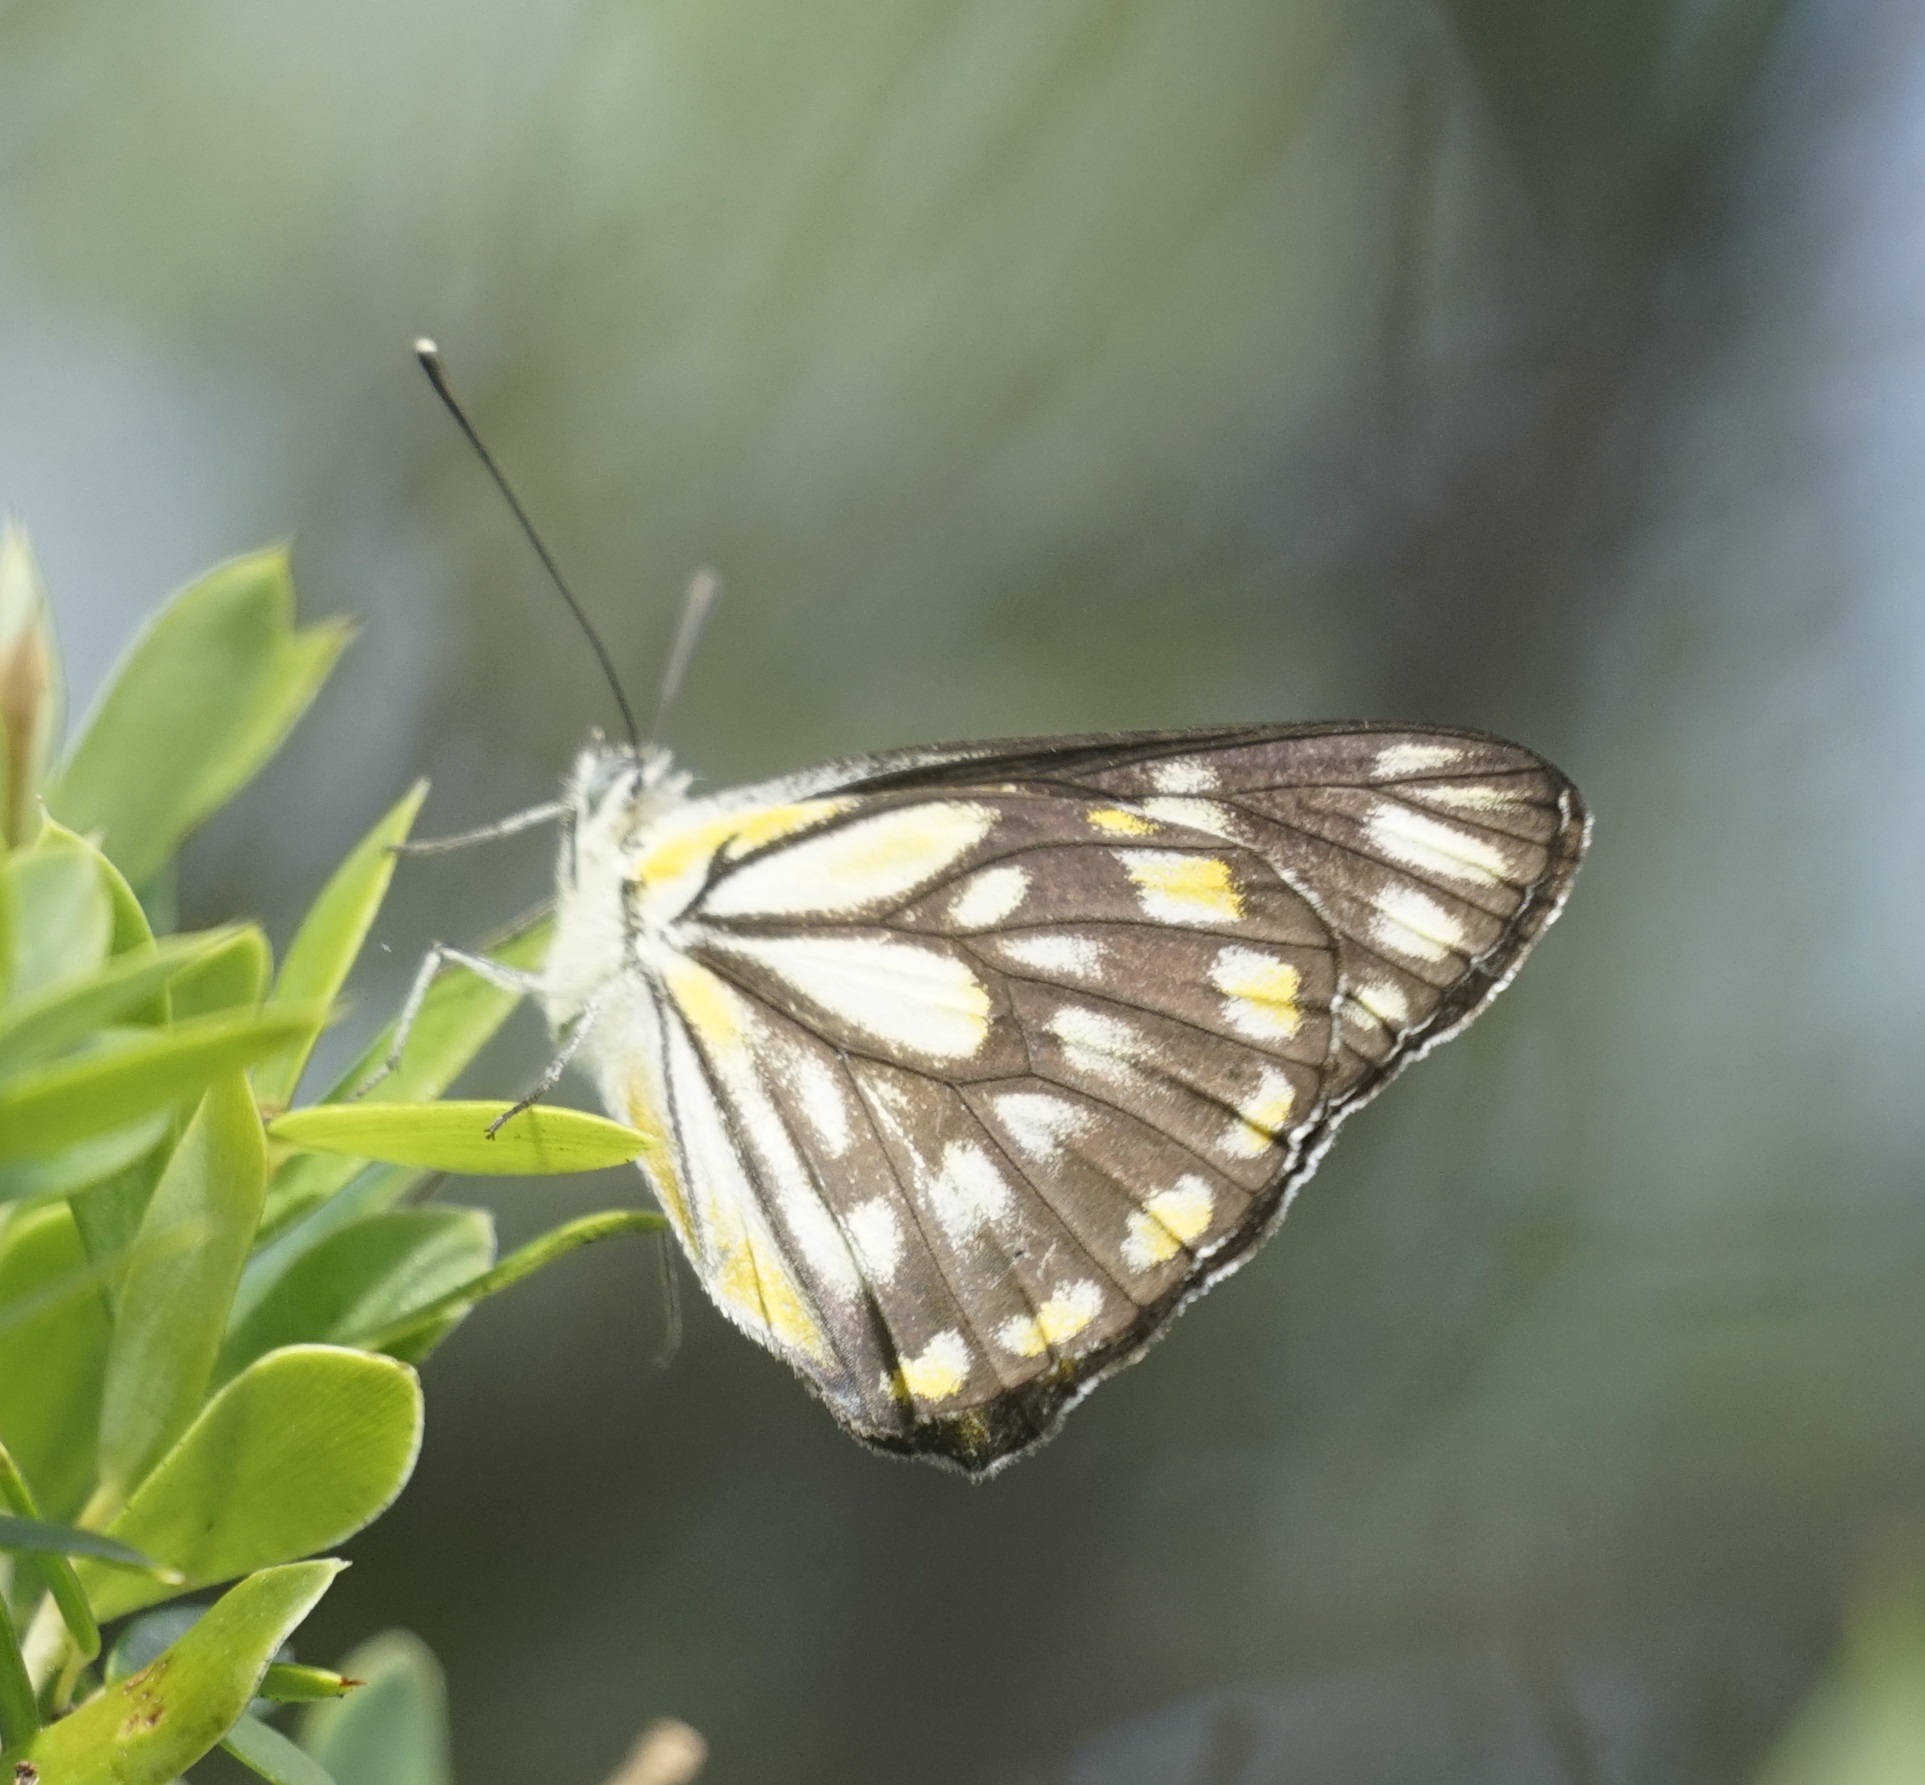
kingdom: Animalia
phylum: Arthropoda
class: Insecta
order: Lepidoptera
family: Pieridae
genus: Belenois
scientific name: Belenois java
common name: Caper white
